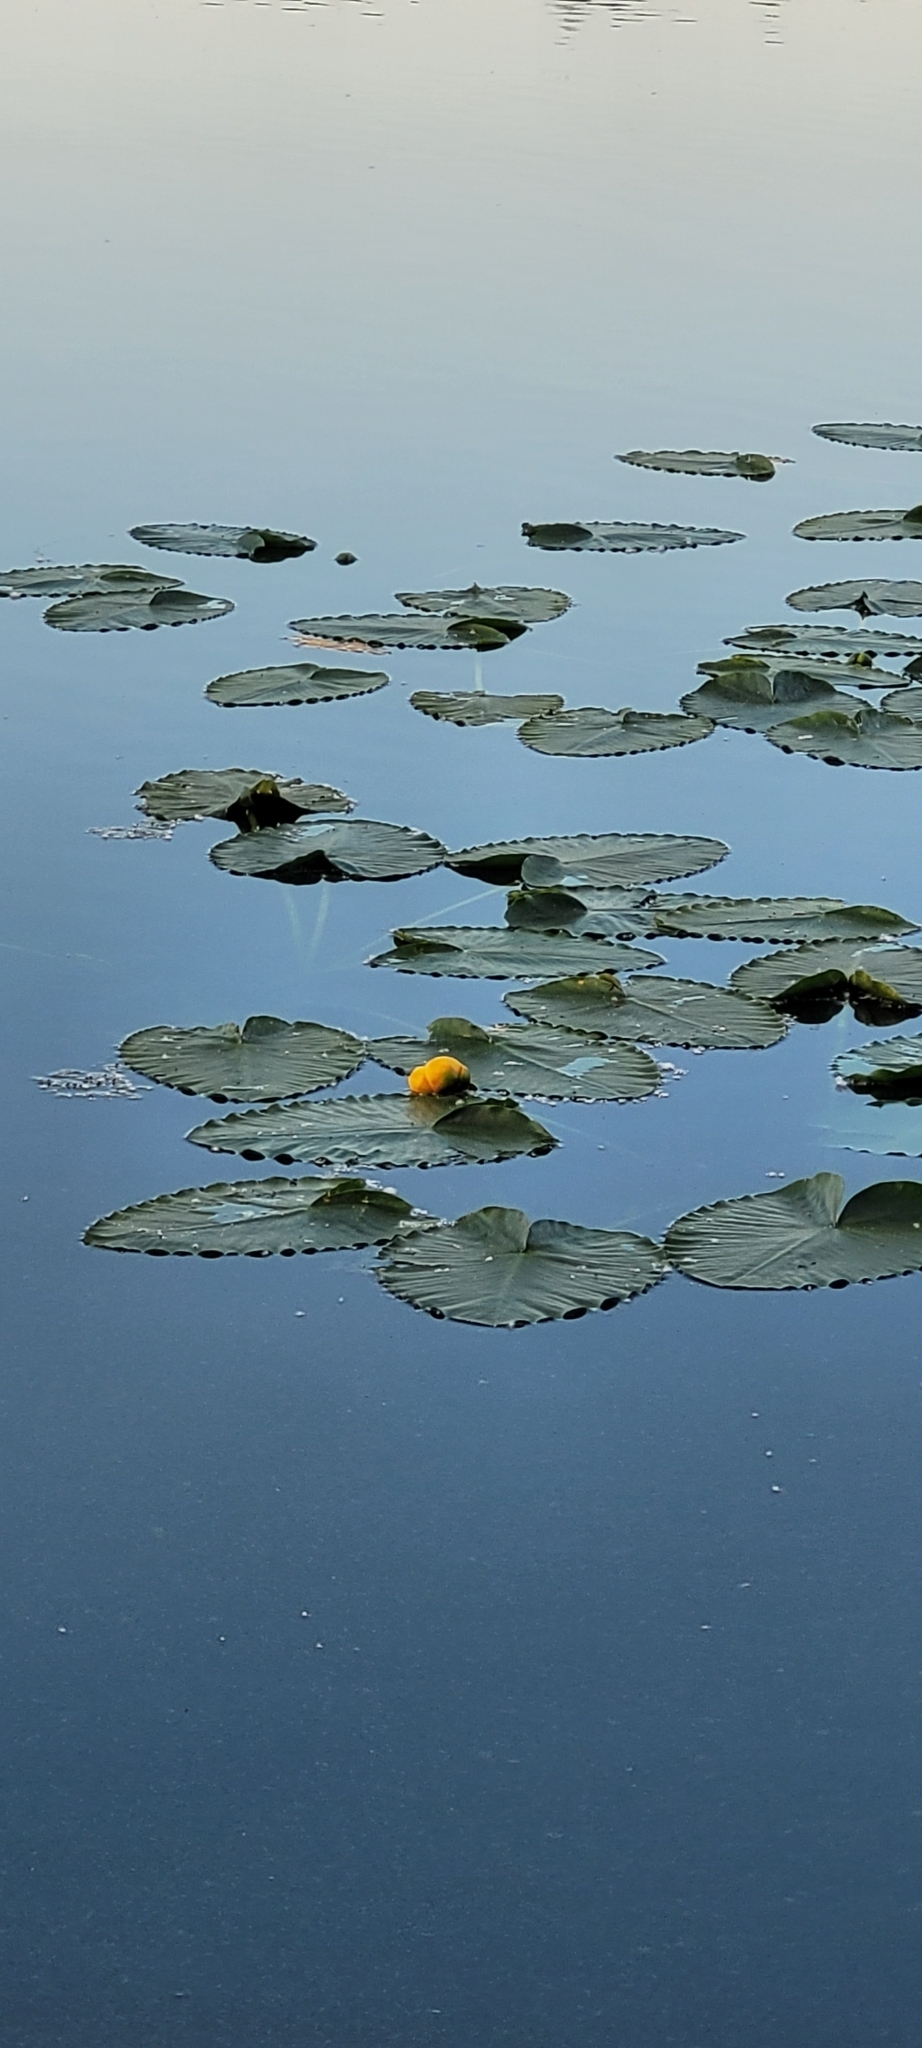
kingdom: Plantae
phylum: Tracheophyta
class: Magnoliopsida
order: Nymphaeales
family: Nymphaeaceae
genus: Nuphar
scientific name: Nuphar polysepala
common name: Rocky mountain cow-lily
